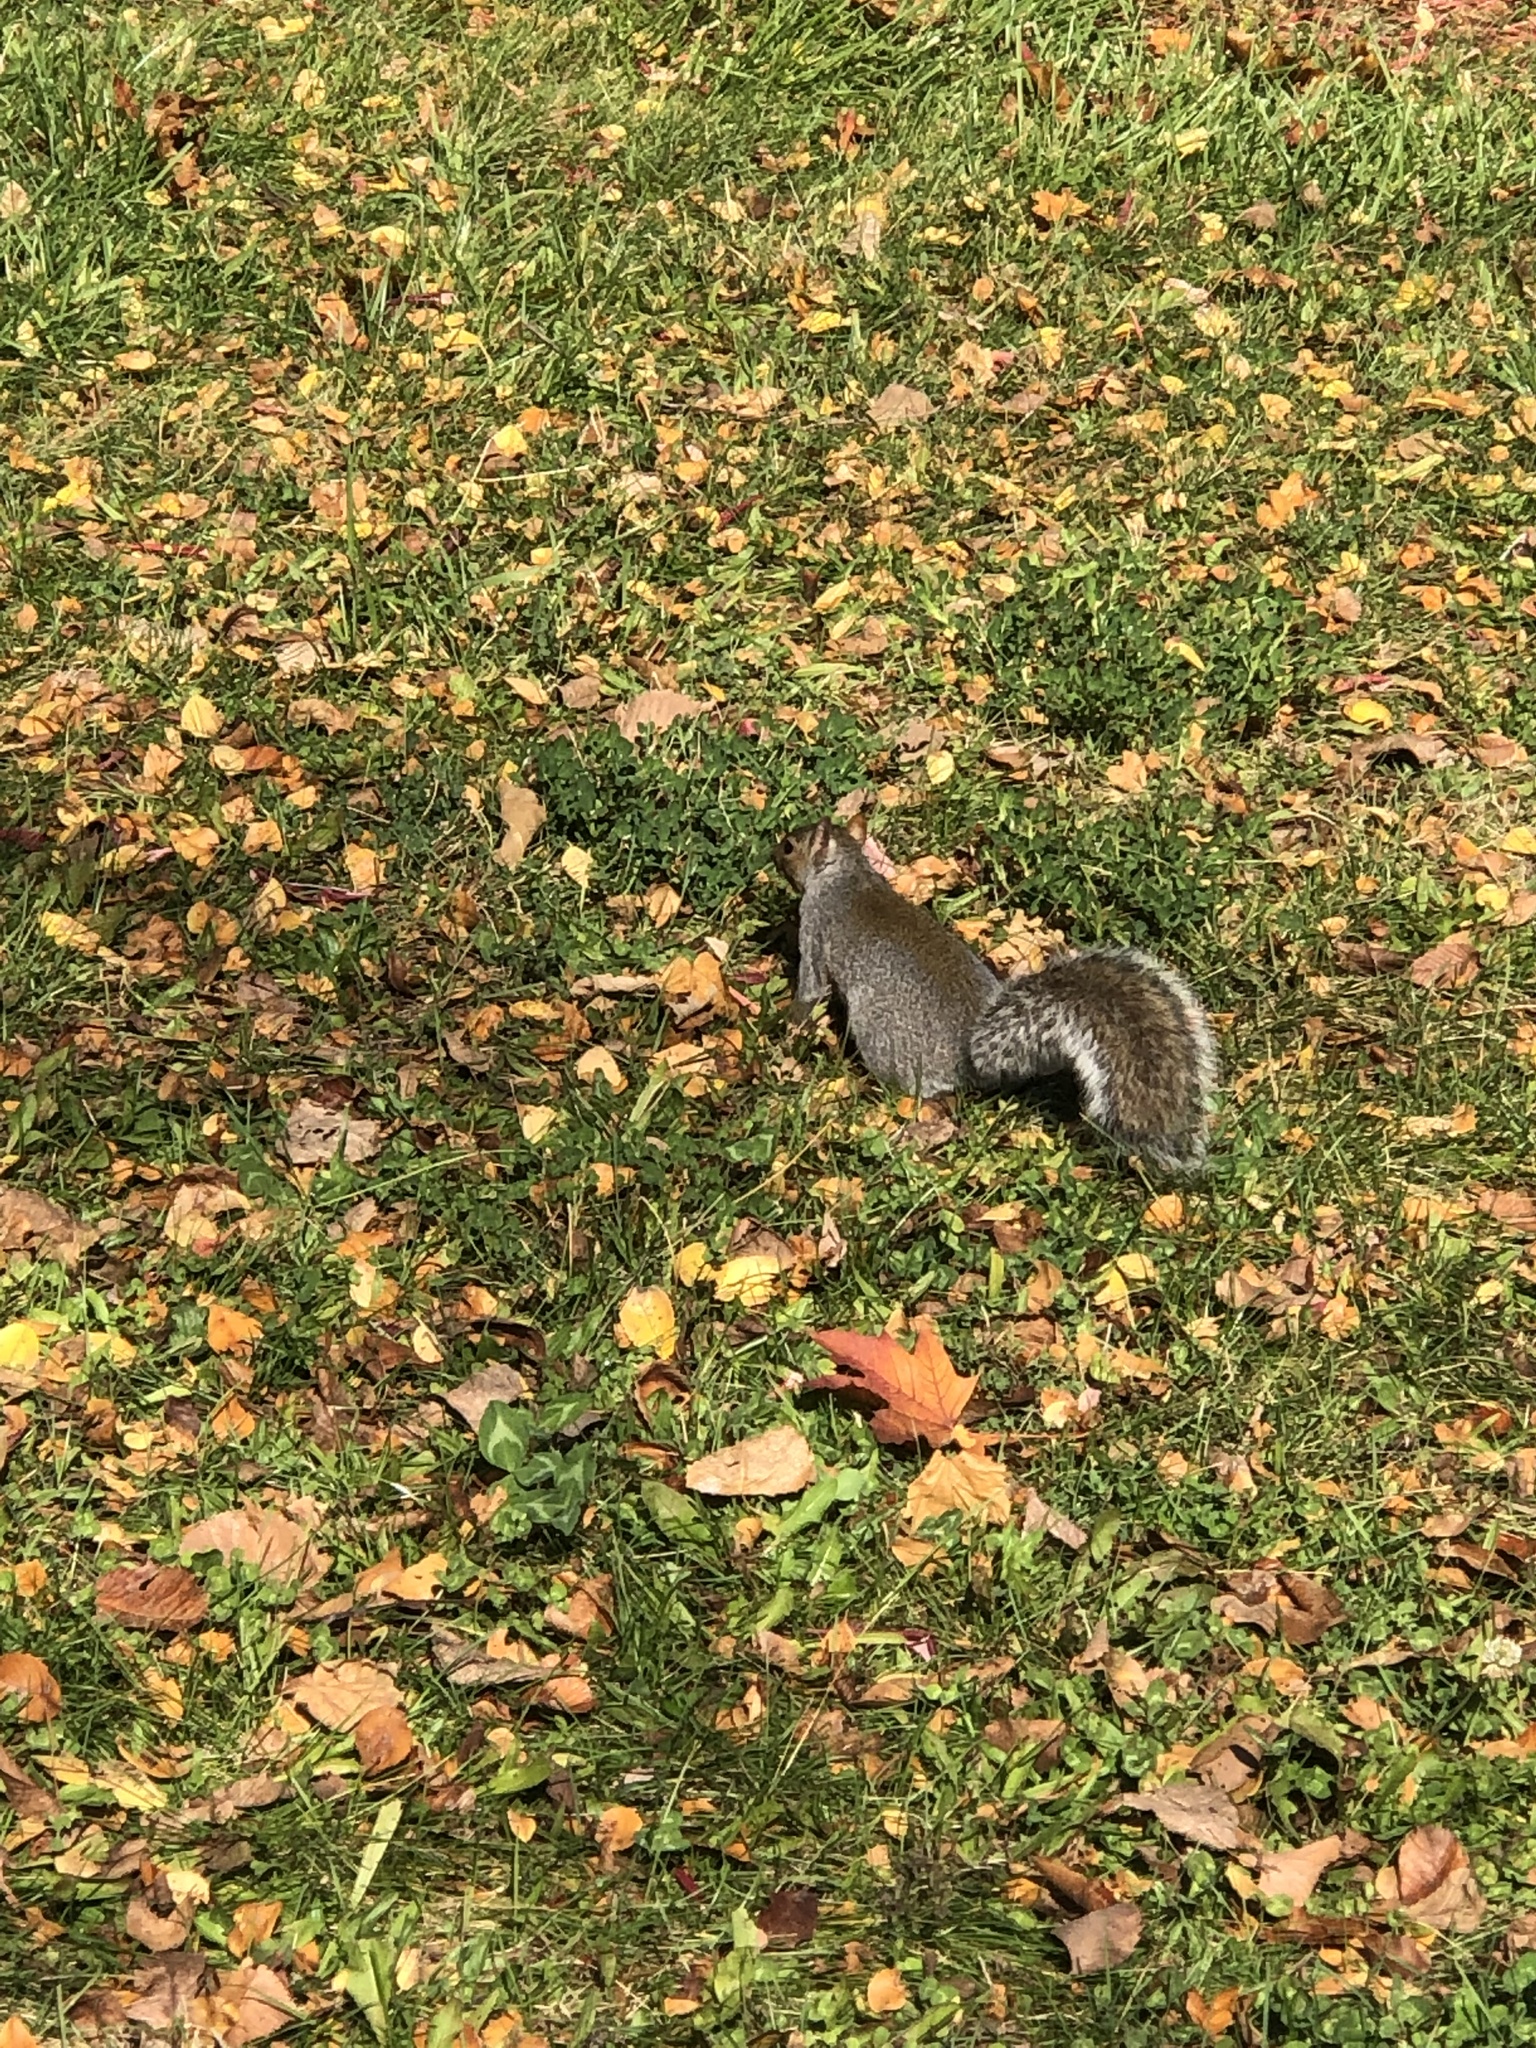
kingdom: Animalia
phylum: Chordata
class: Mammalia
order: Rodentia
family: Sciuridae
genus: Sciurus
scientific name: Sciurus carolinensis
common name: Eastern gray squirrel
